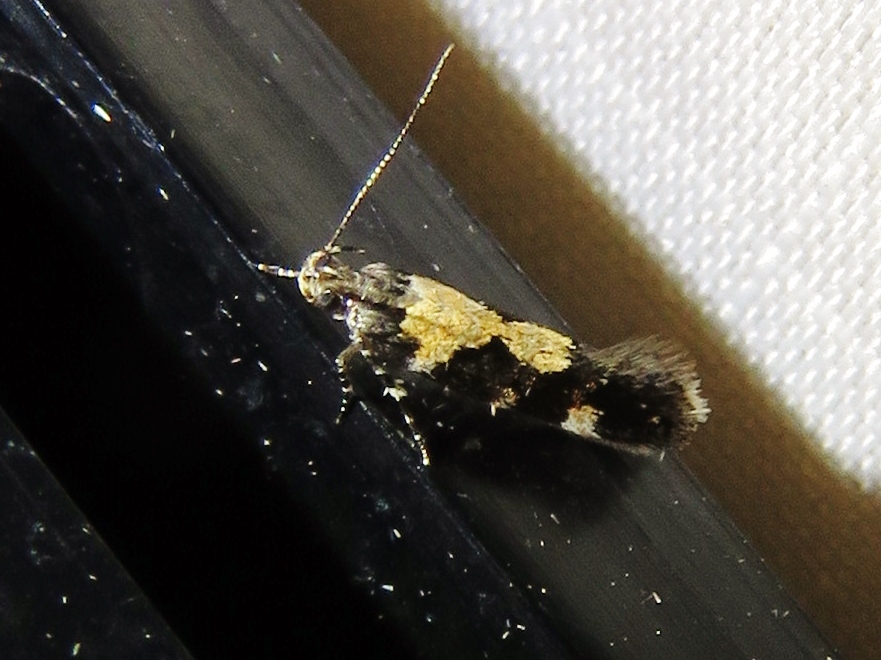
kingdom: Animalia
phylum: Arthropoda
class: Insecta
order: Lepidoptera
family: Gelechiidae
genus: Stegasta
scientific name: Stegasta bosqueella
